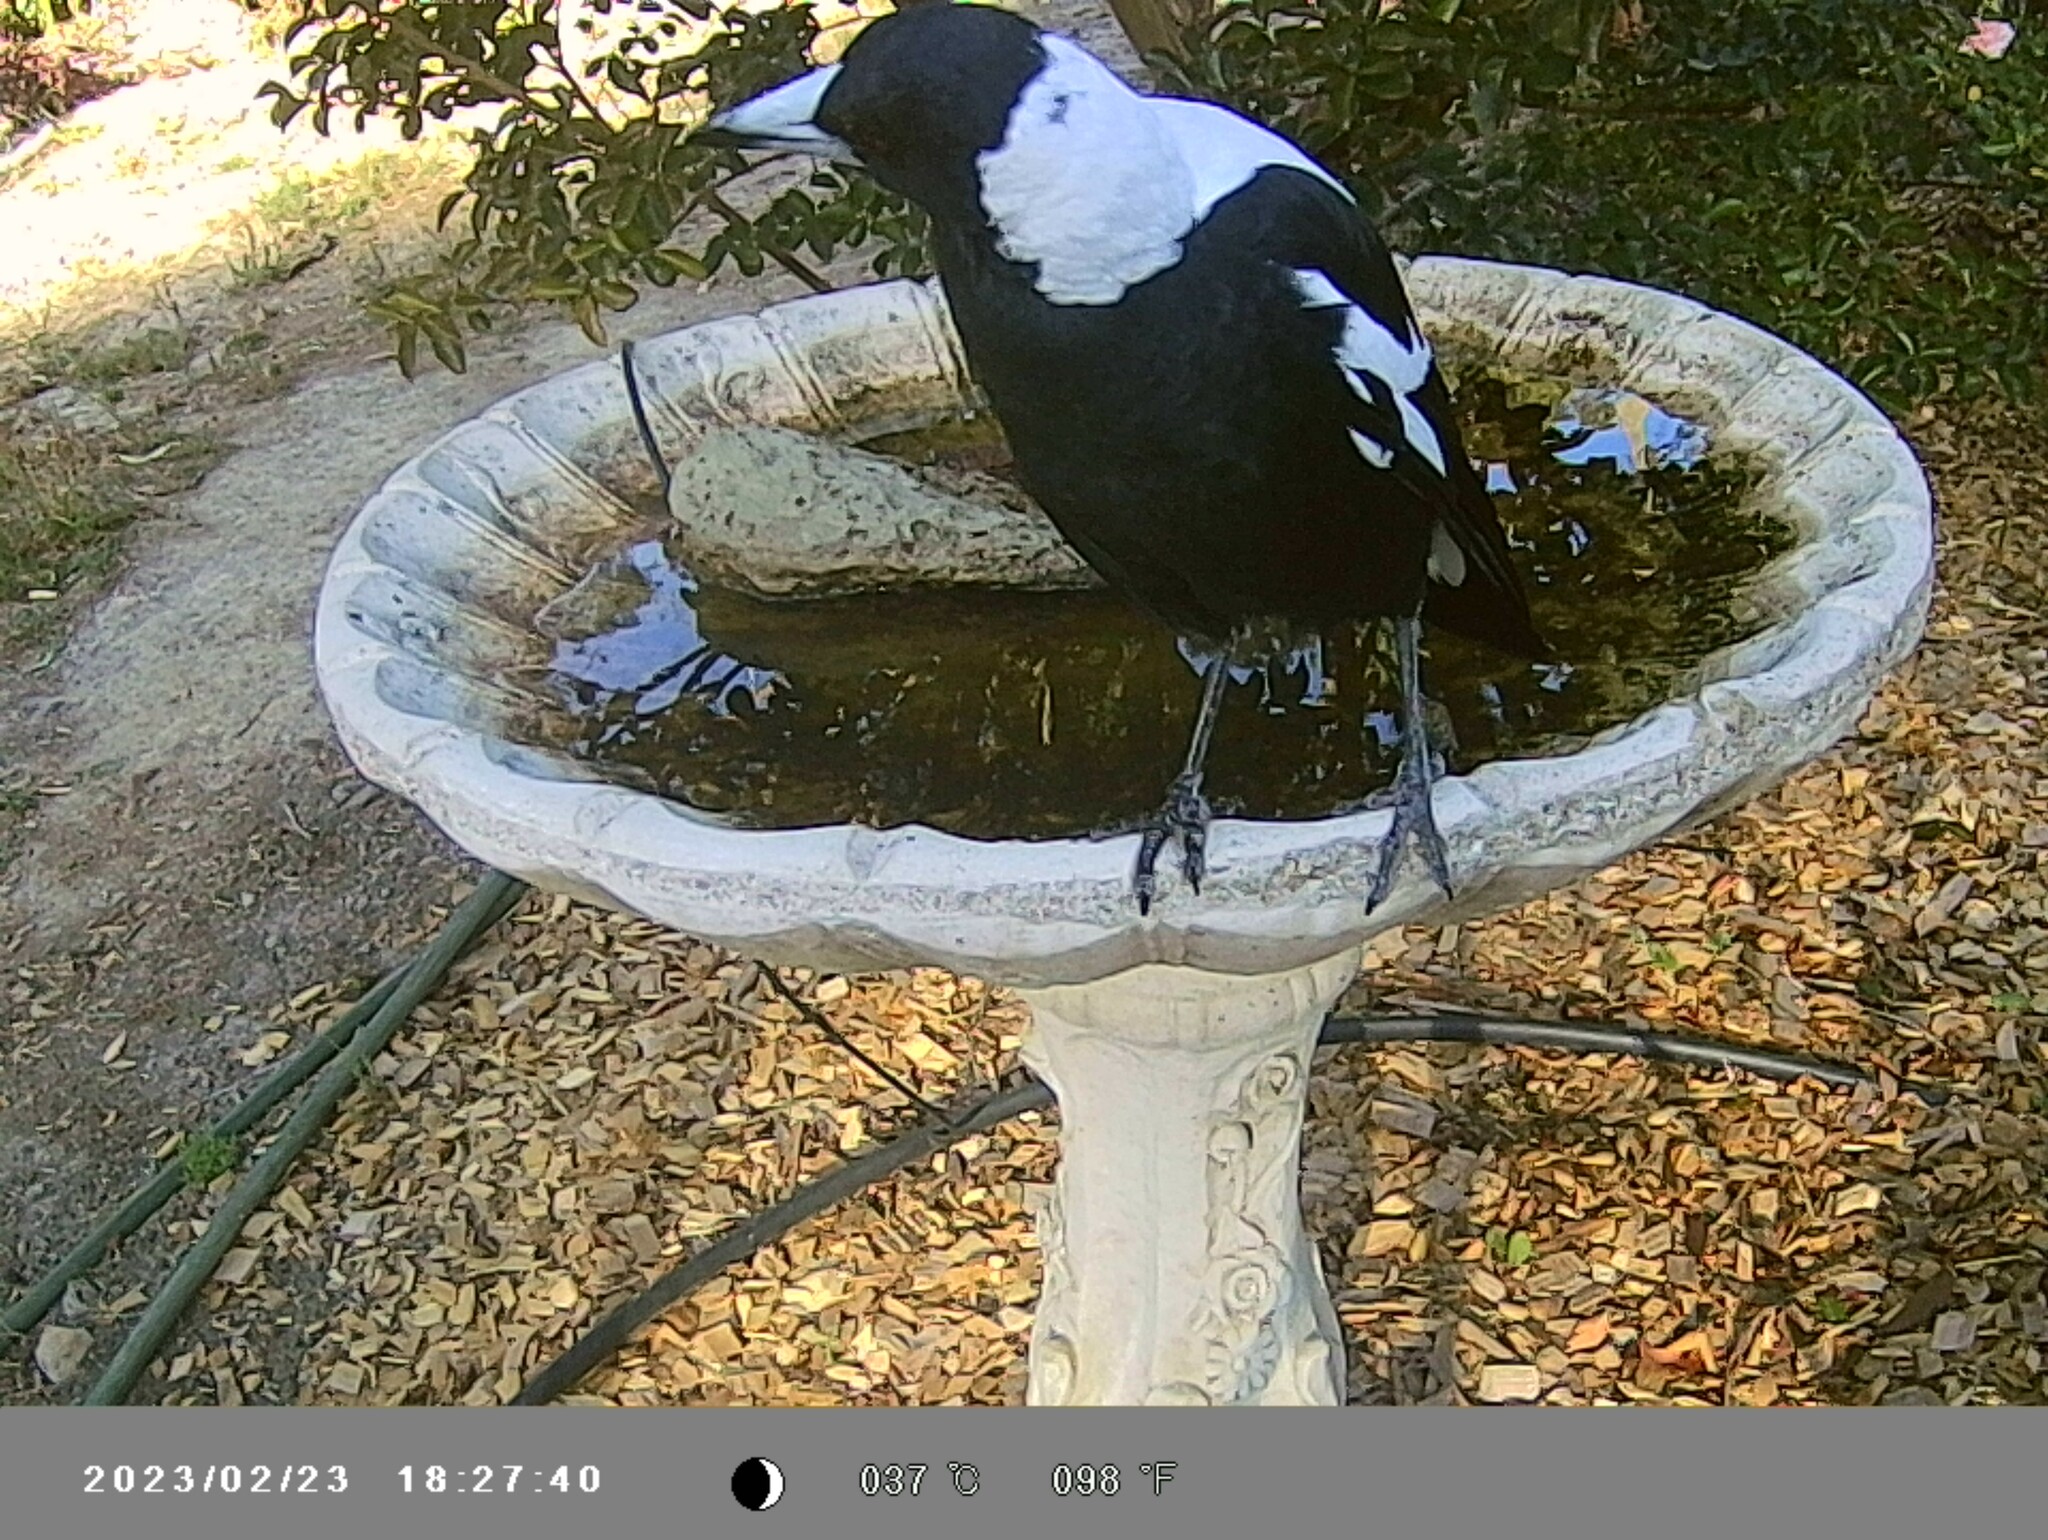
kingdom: Animalia
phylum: Chordata
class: Aves
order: Passeriformes
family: Cracticidae
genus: Gymnorhina
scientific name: Gymnorhina tibicen
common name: Australian magpie
